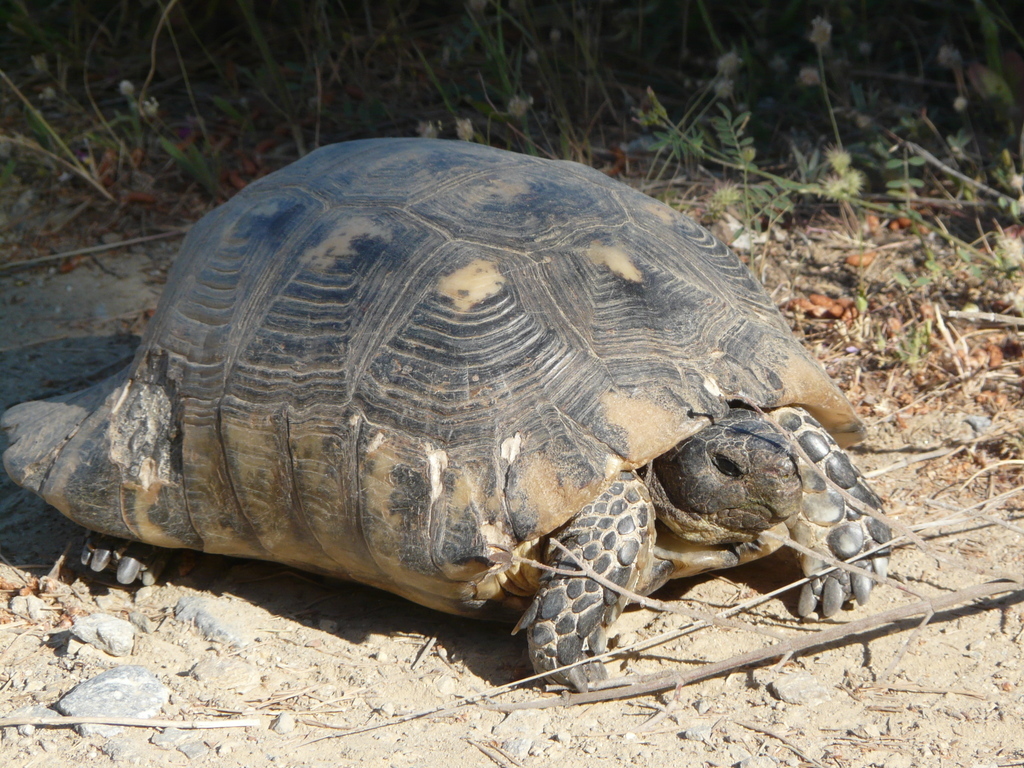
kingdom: Animalia
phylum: Chordata
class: Testudines
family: Testudinidae
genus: Testudo
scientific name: Testudo marginata
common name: Marginated tortoise
